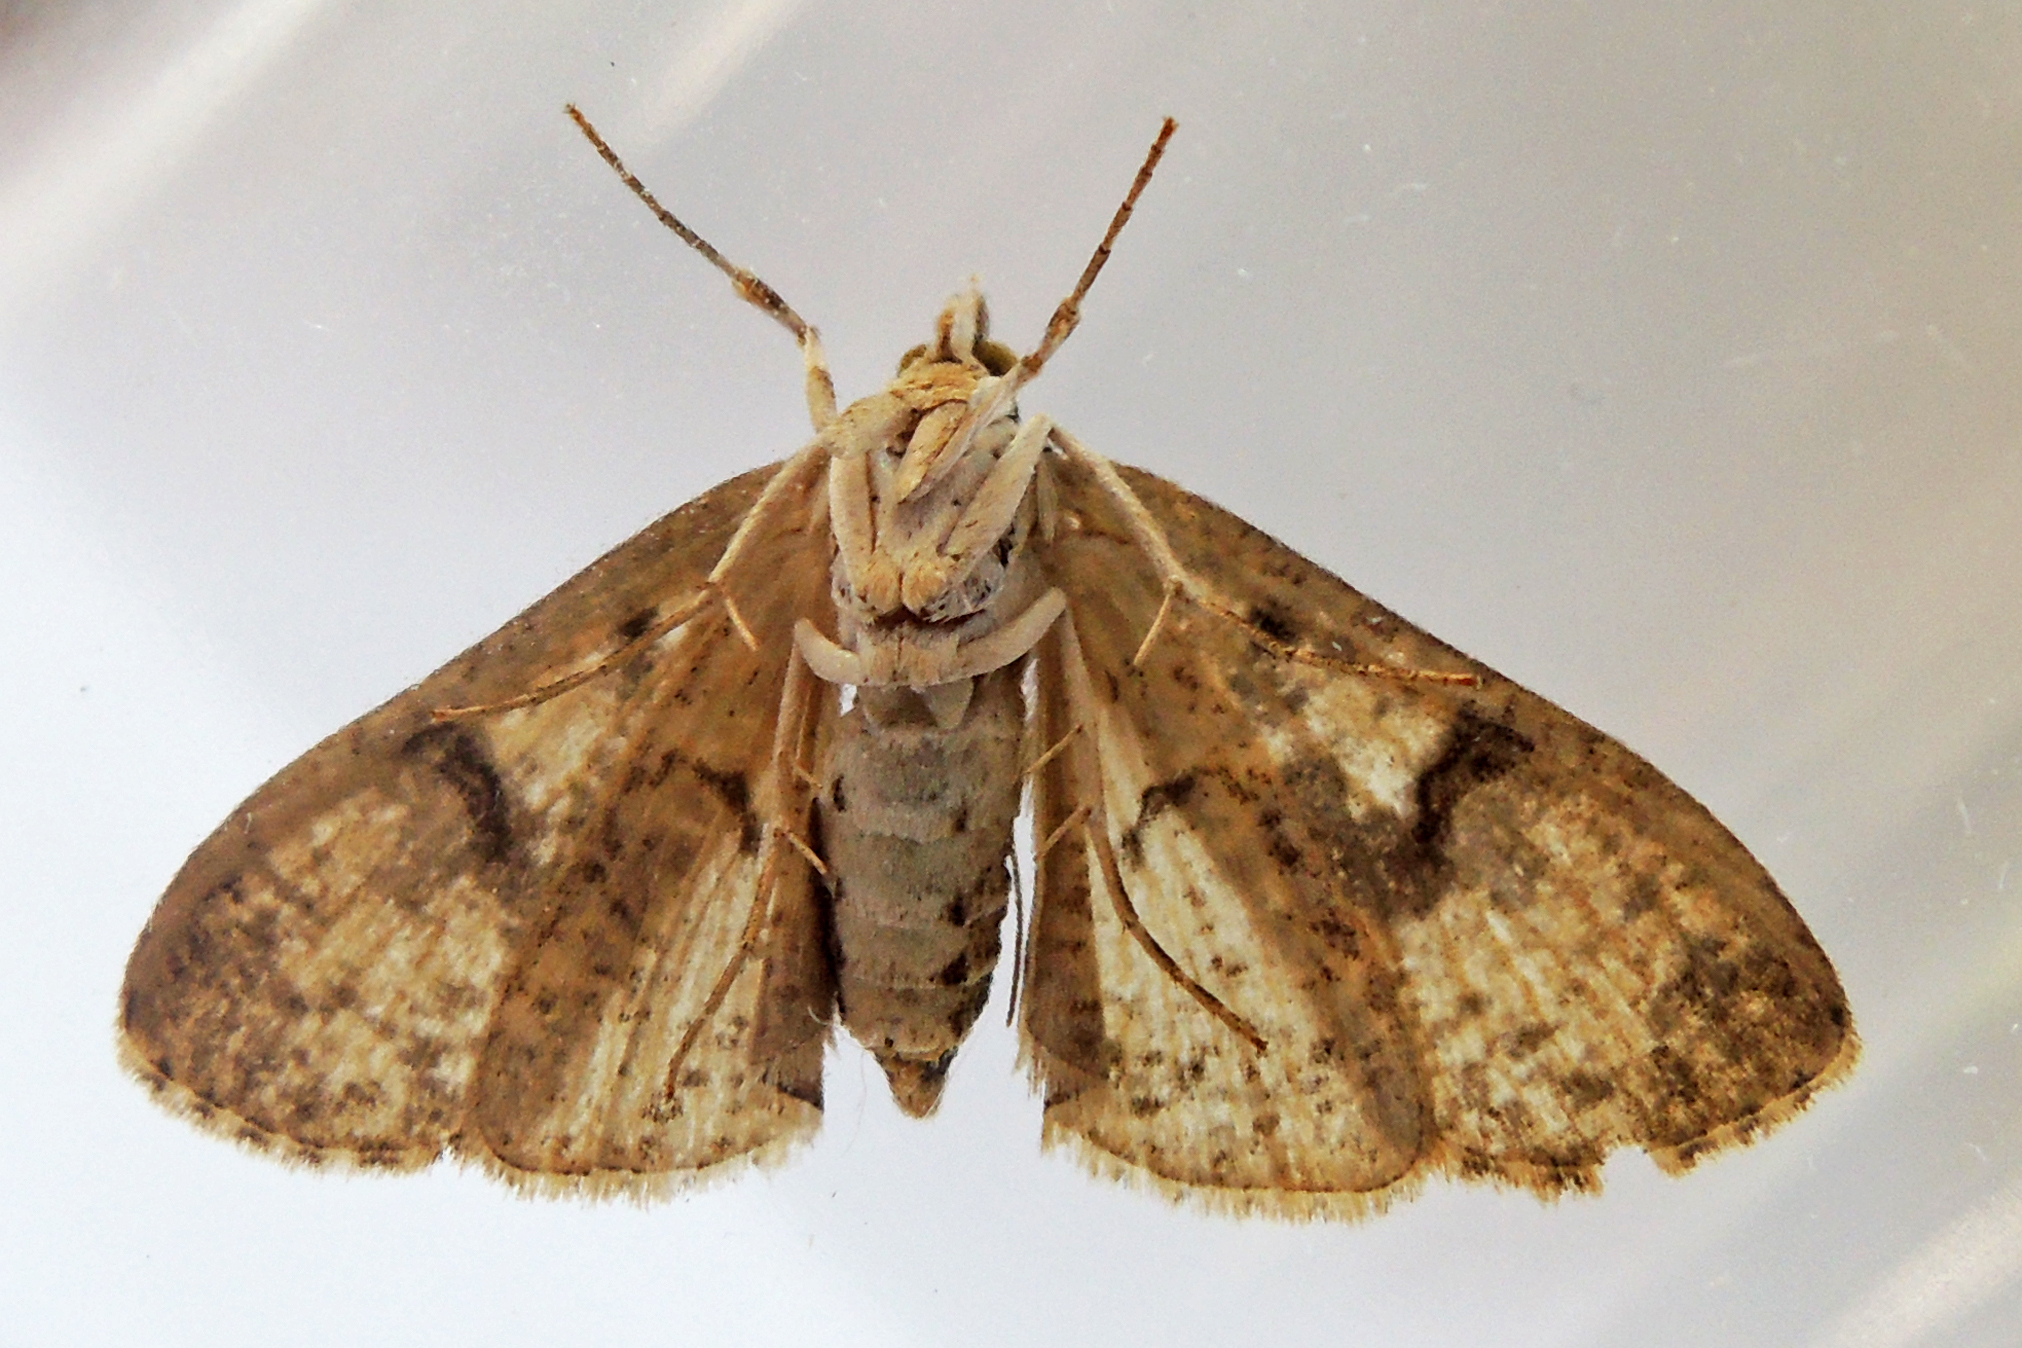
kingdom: Animalia
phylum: Arthropoda
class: Insecta
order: Lepidoptera
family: Crambidae
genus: Palpita
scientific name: Palpita magniferalis
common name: Splendid palpita moth
